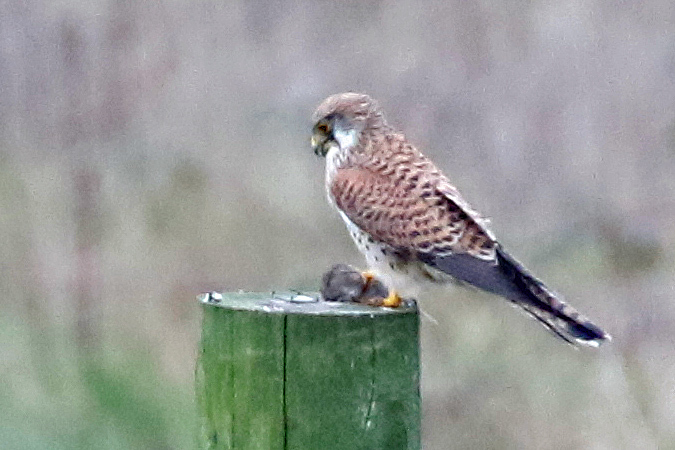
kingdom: Animalia
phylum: Chordata
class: Aves
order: Falconiformes
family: Falconidae
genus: Falco
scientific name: Falco tinnunculus
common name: Common kestrel
